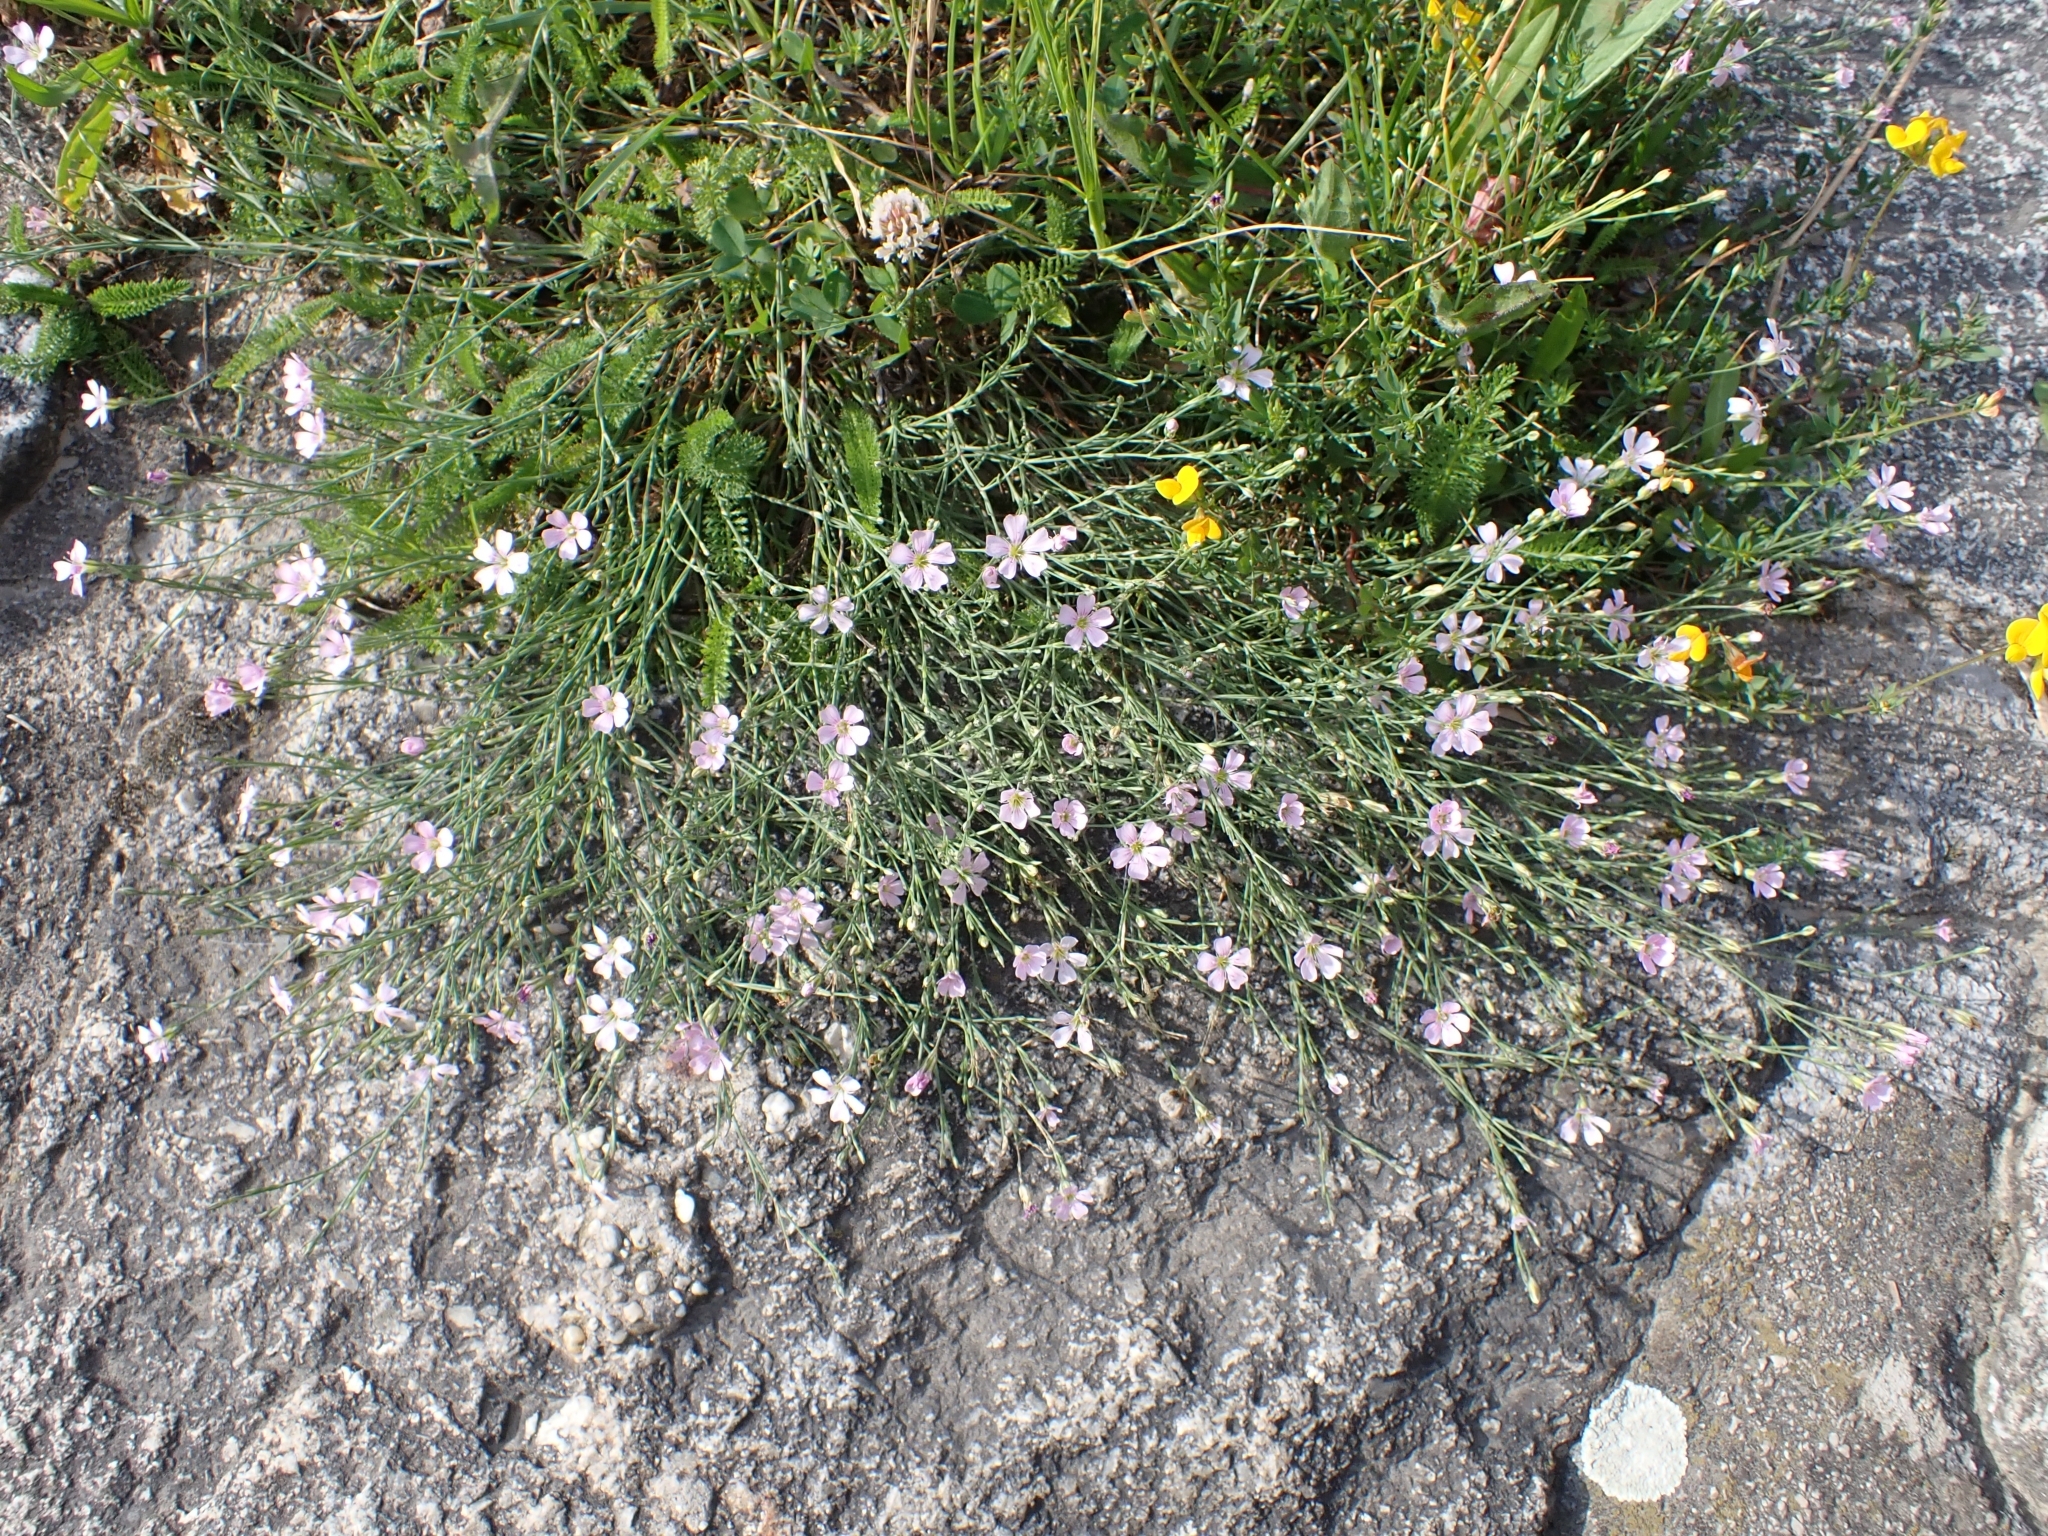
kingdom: Plantae
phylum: Tracheophyta
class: Magnoliopsida
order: Caryophyllales
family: Caryophyllaceae
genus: Petrorhagia
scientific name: Petrorhagia saxifraga
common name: Tunicflower
